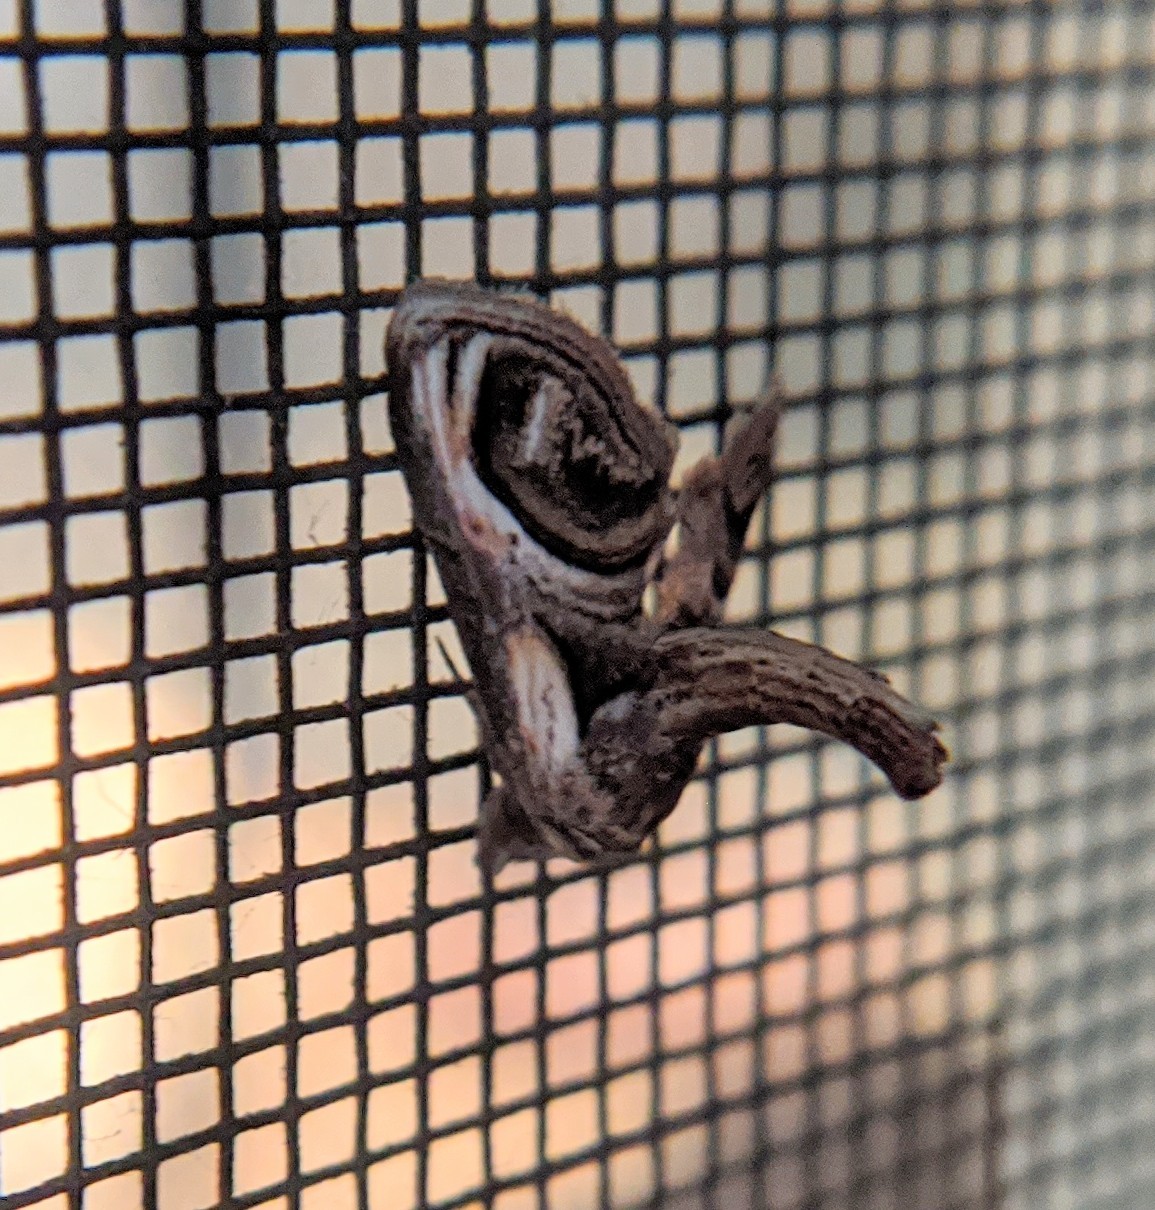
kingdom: Animalia
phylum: Arthropoda
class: Insecta
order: Lepidoptera
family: Euteliidae
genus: Paectes
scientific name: Paectes oculatrix
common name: Eyed paectes moth
